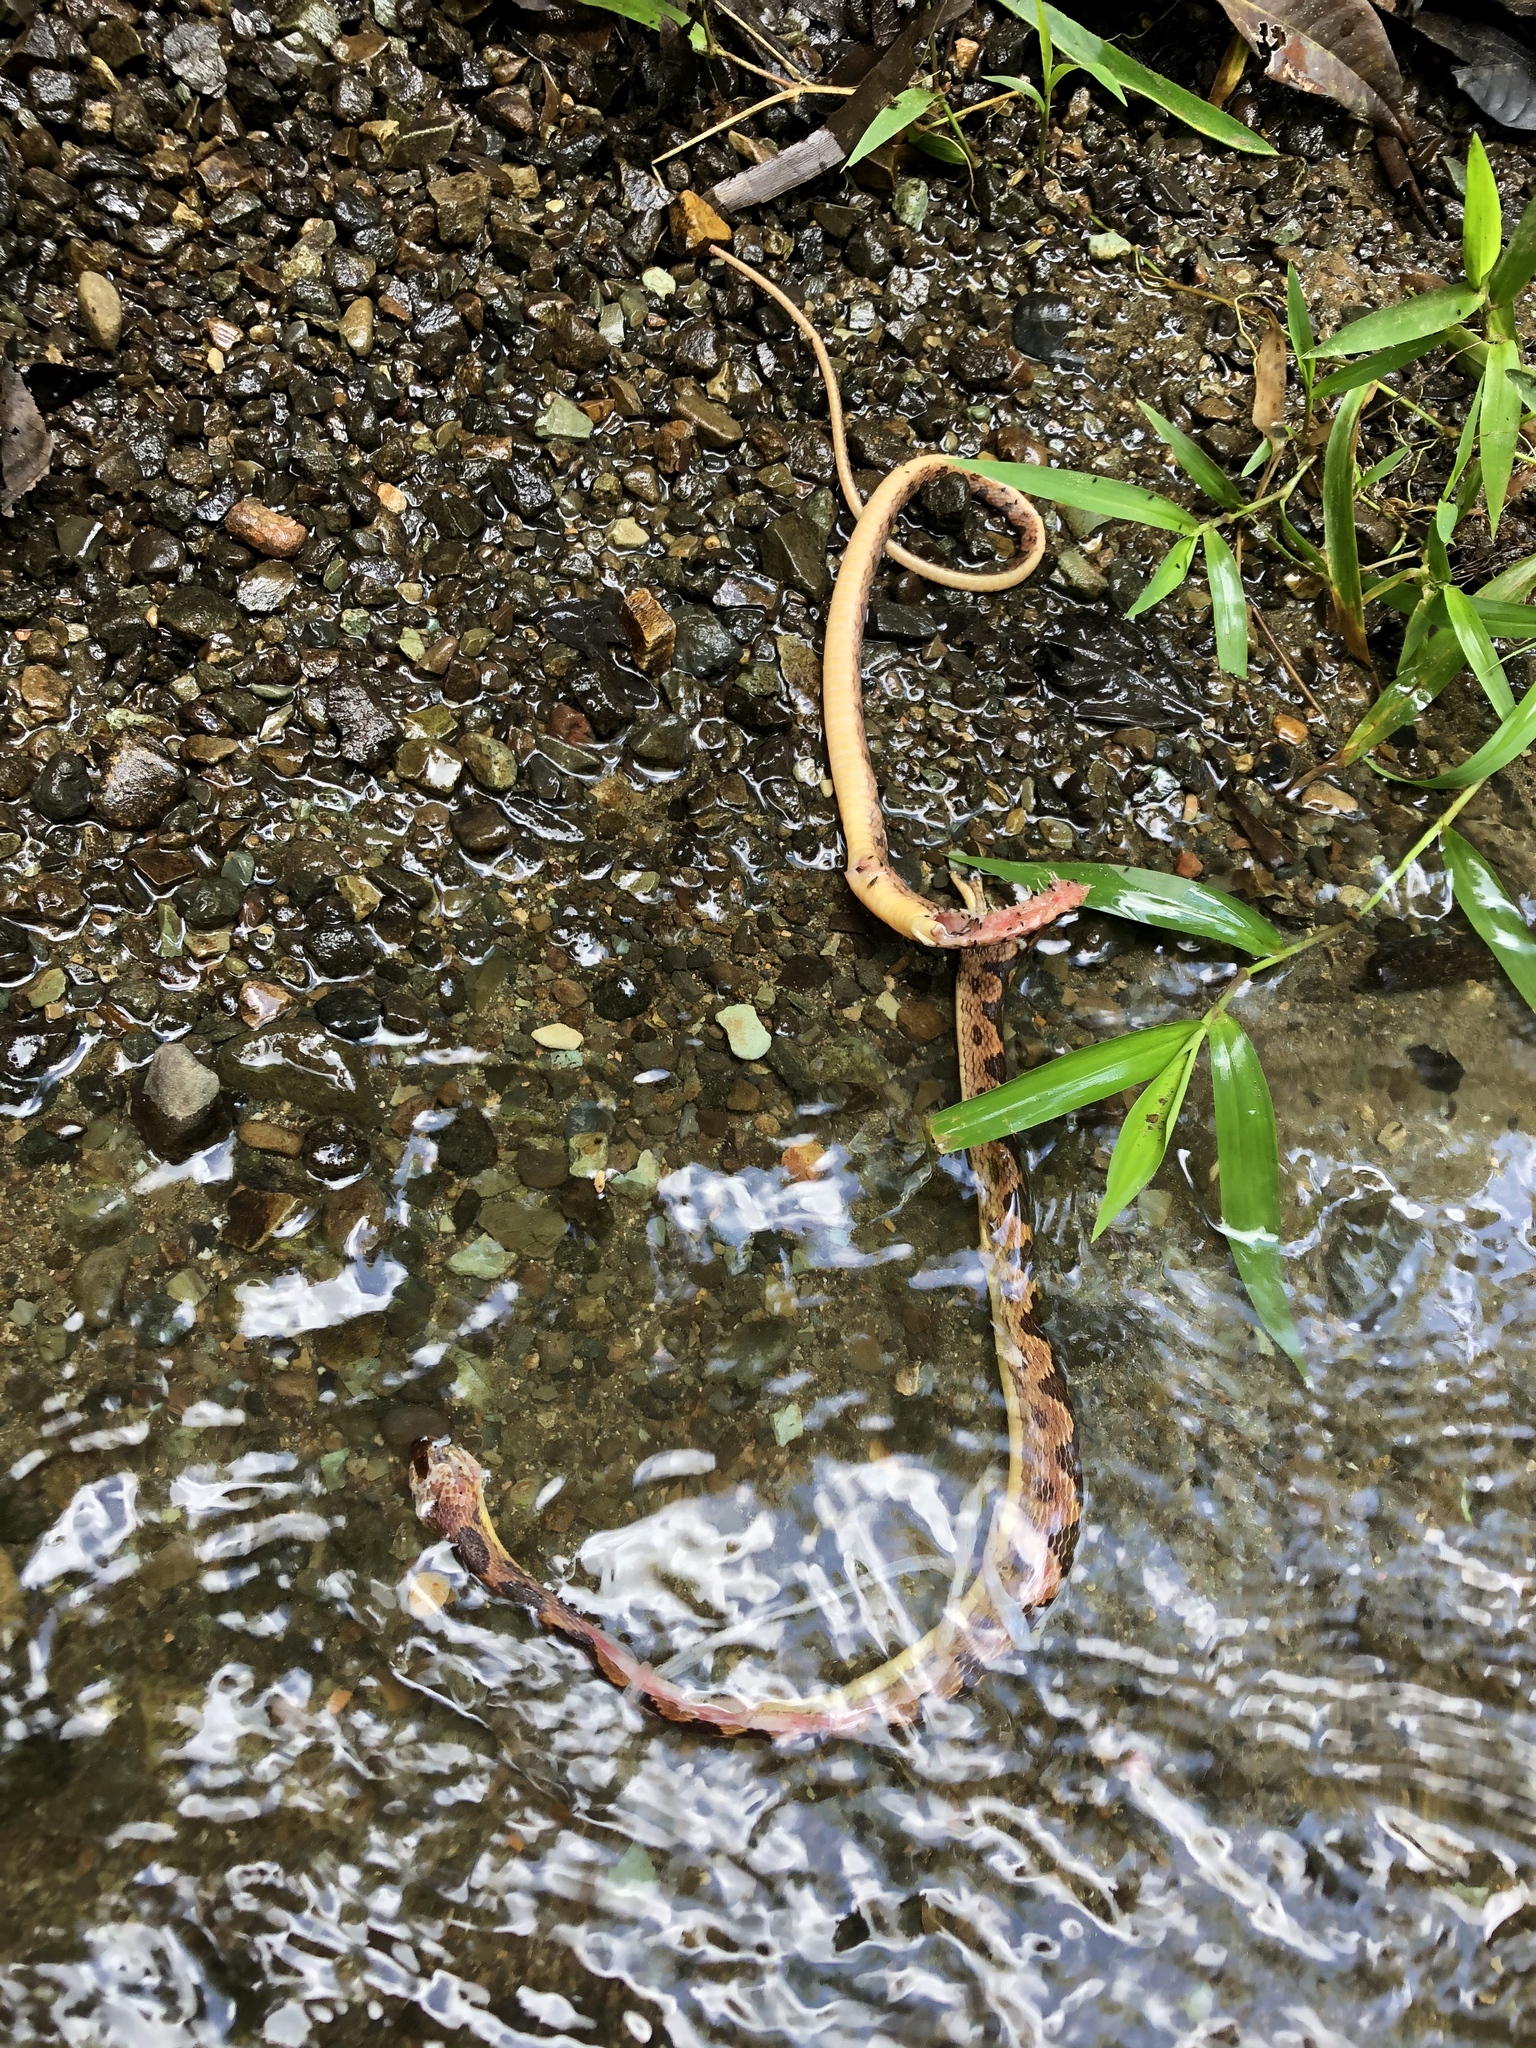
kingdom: Animalia
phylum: Chordata
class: Squamata
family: Colubridae
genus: Leptodeira
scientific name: Leptodeira ornata
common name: Northern cat-eyed snake
